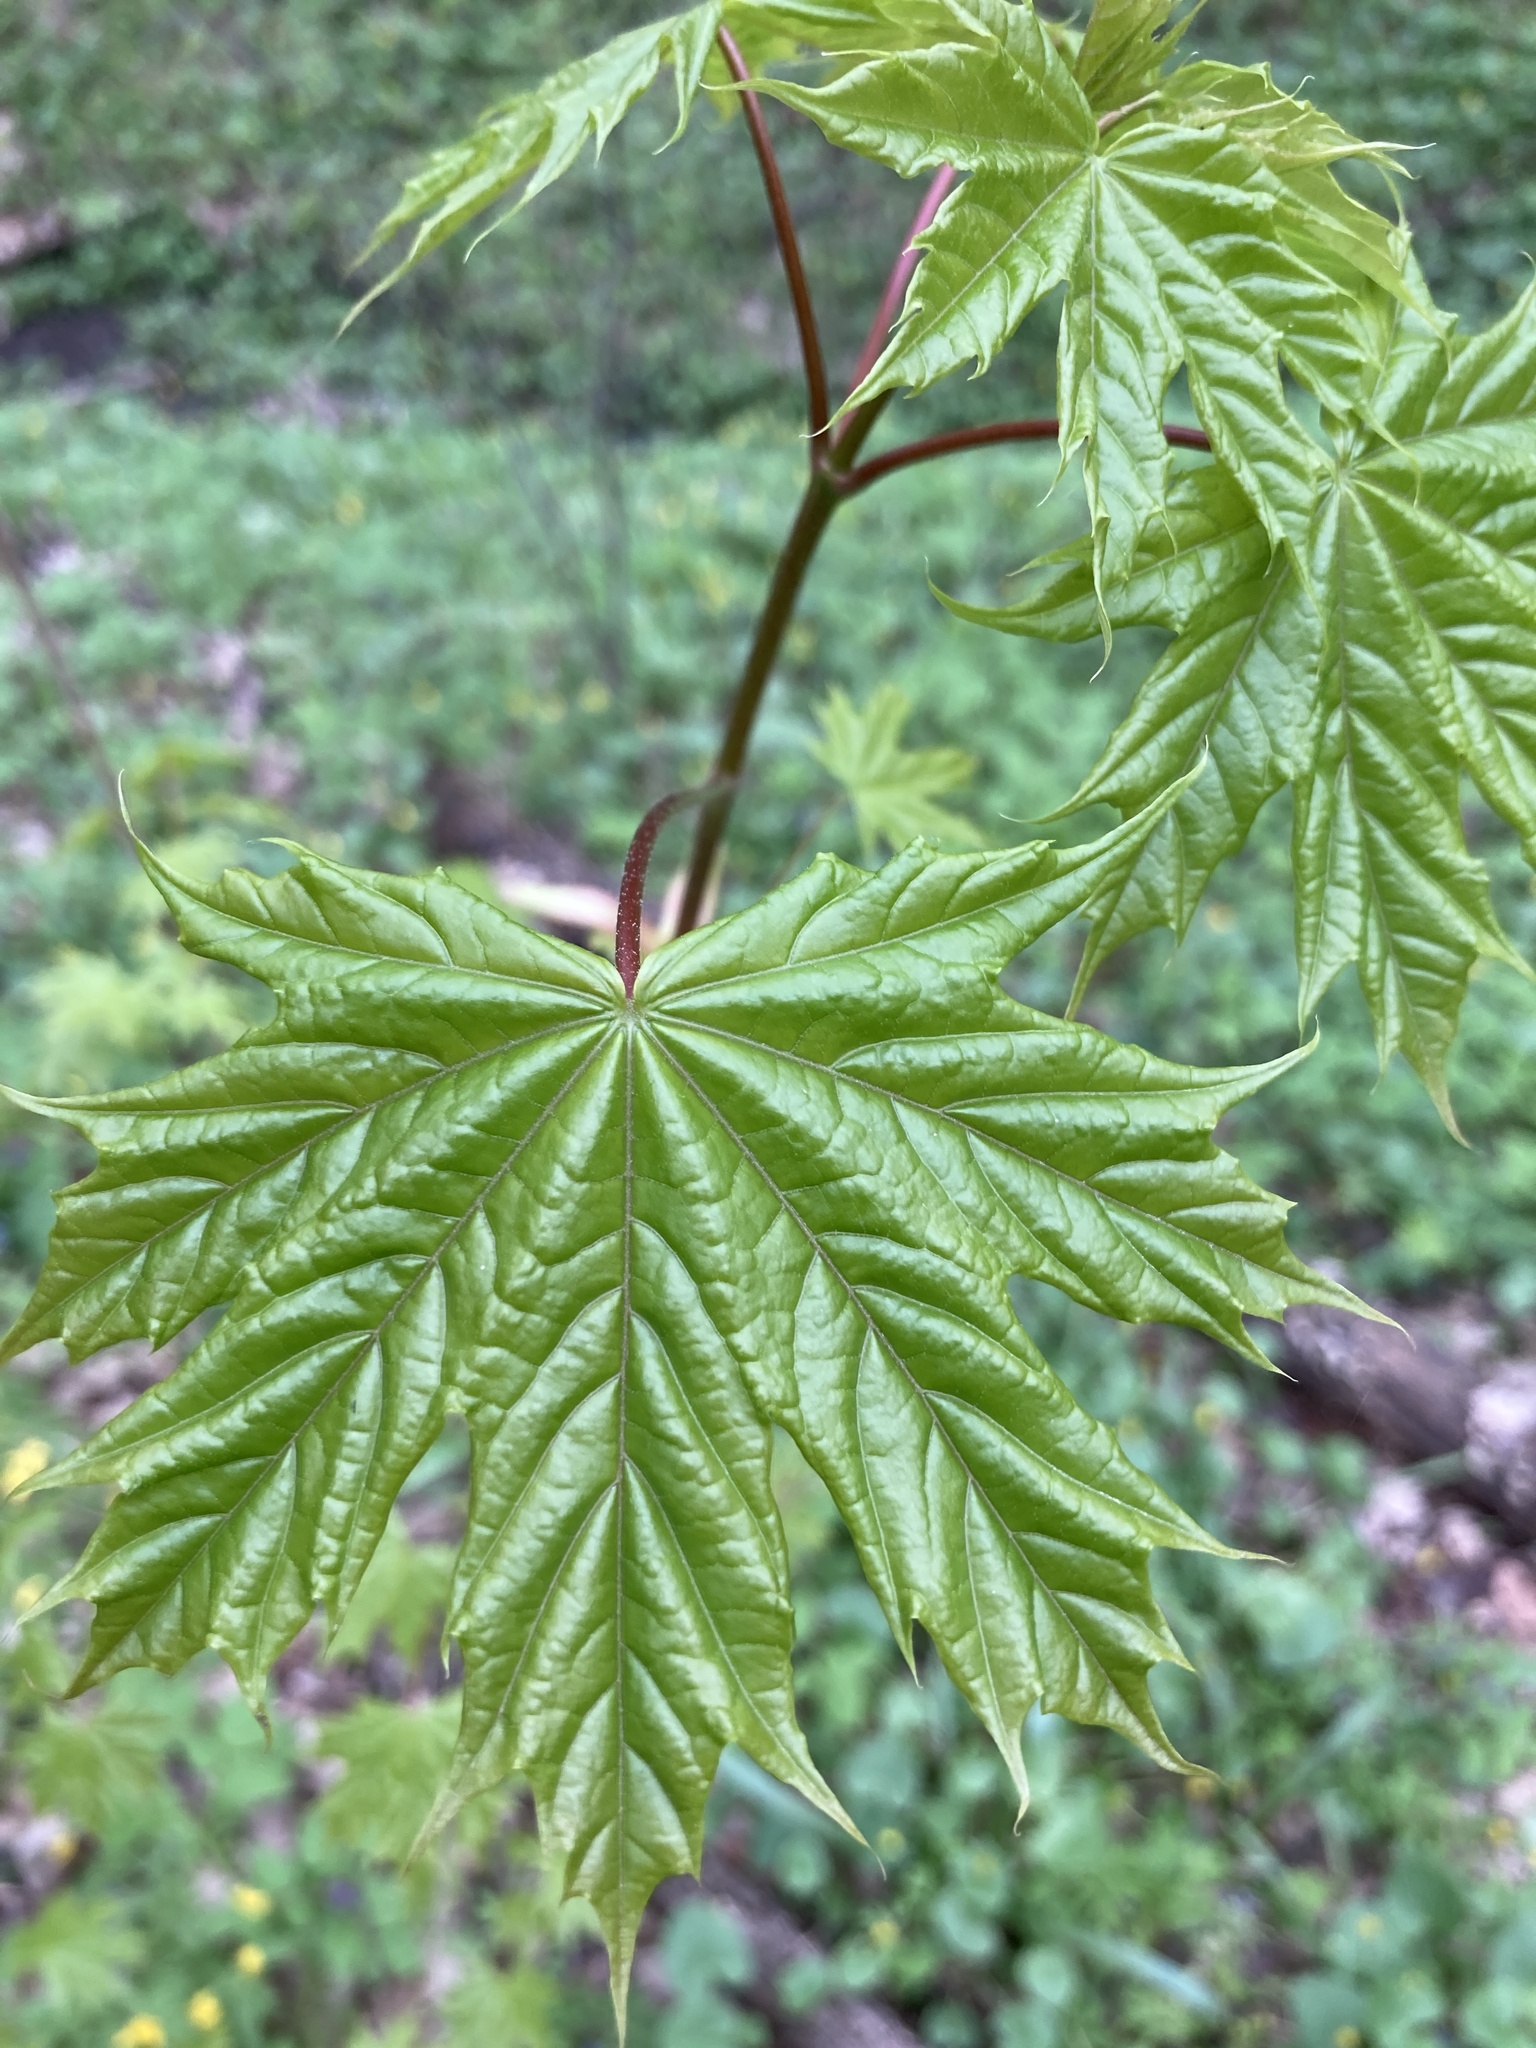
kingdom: Plantae
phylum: Tracheophyta
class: Magnoliopsida
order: Sapindales
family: Sapindaceae
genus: Acer
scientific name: Acer platanoides
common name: Norway maple
